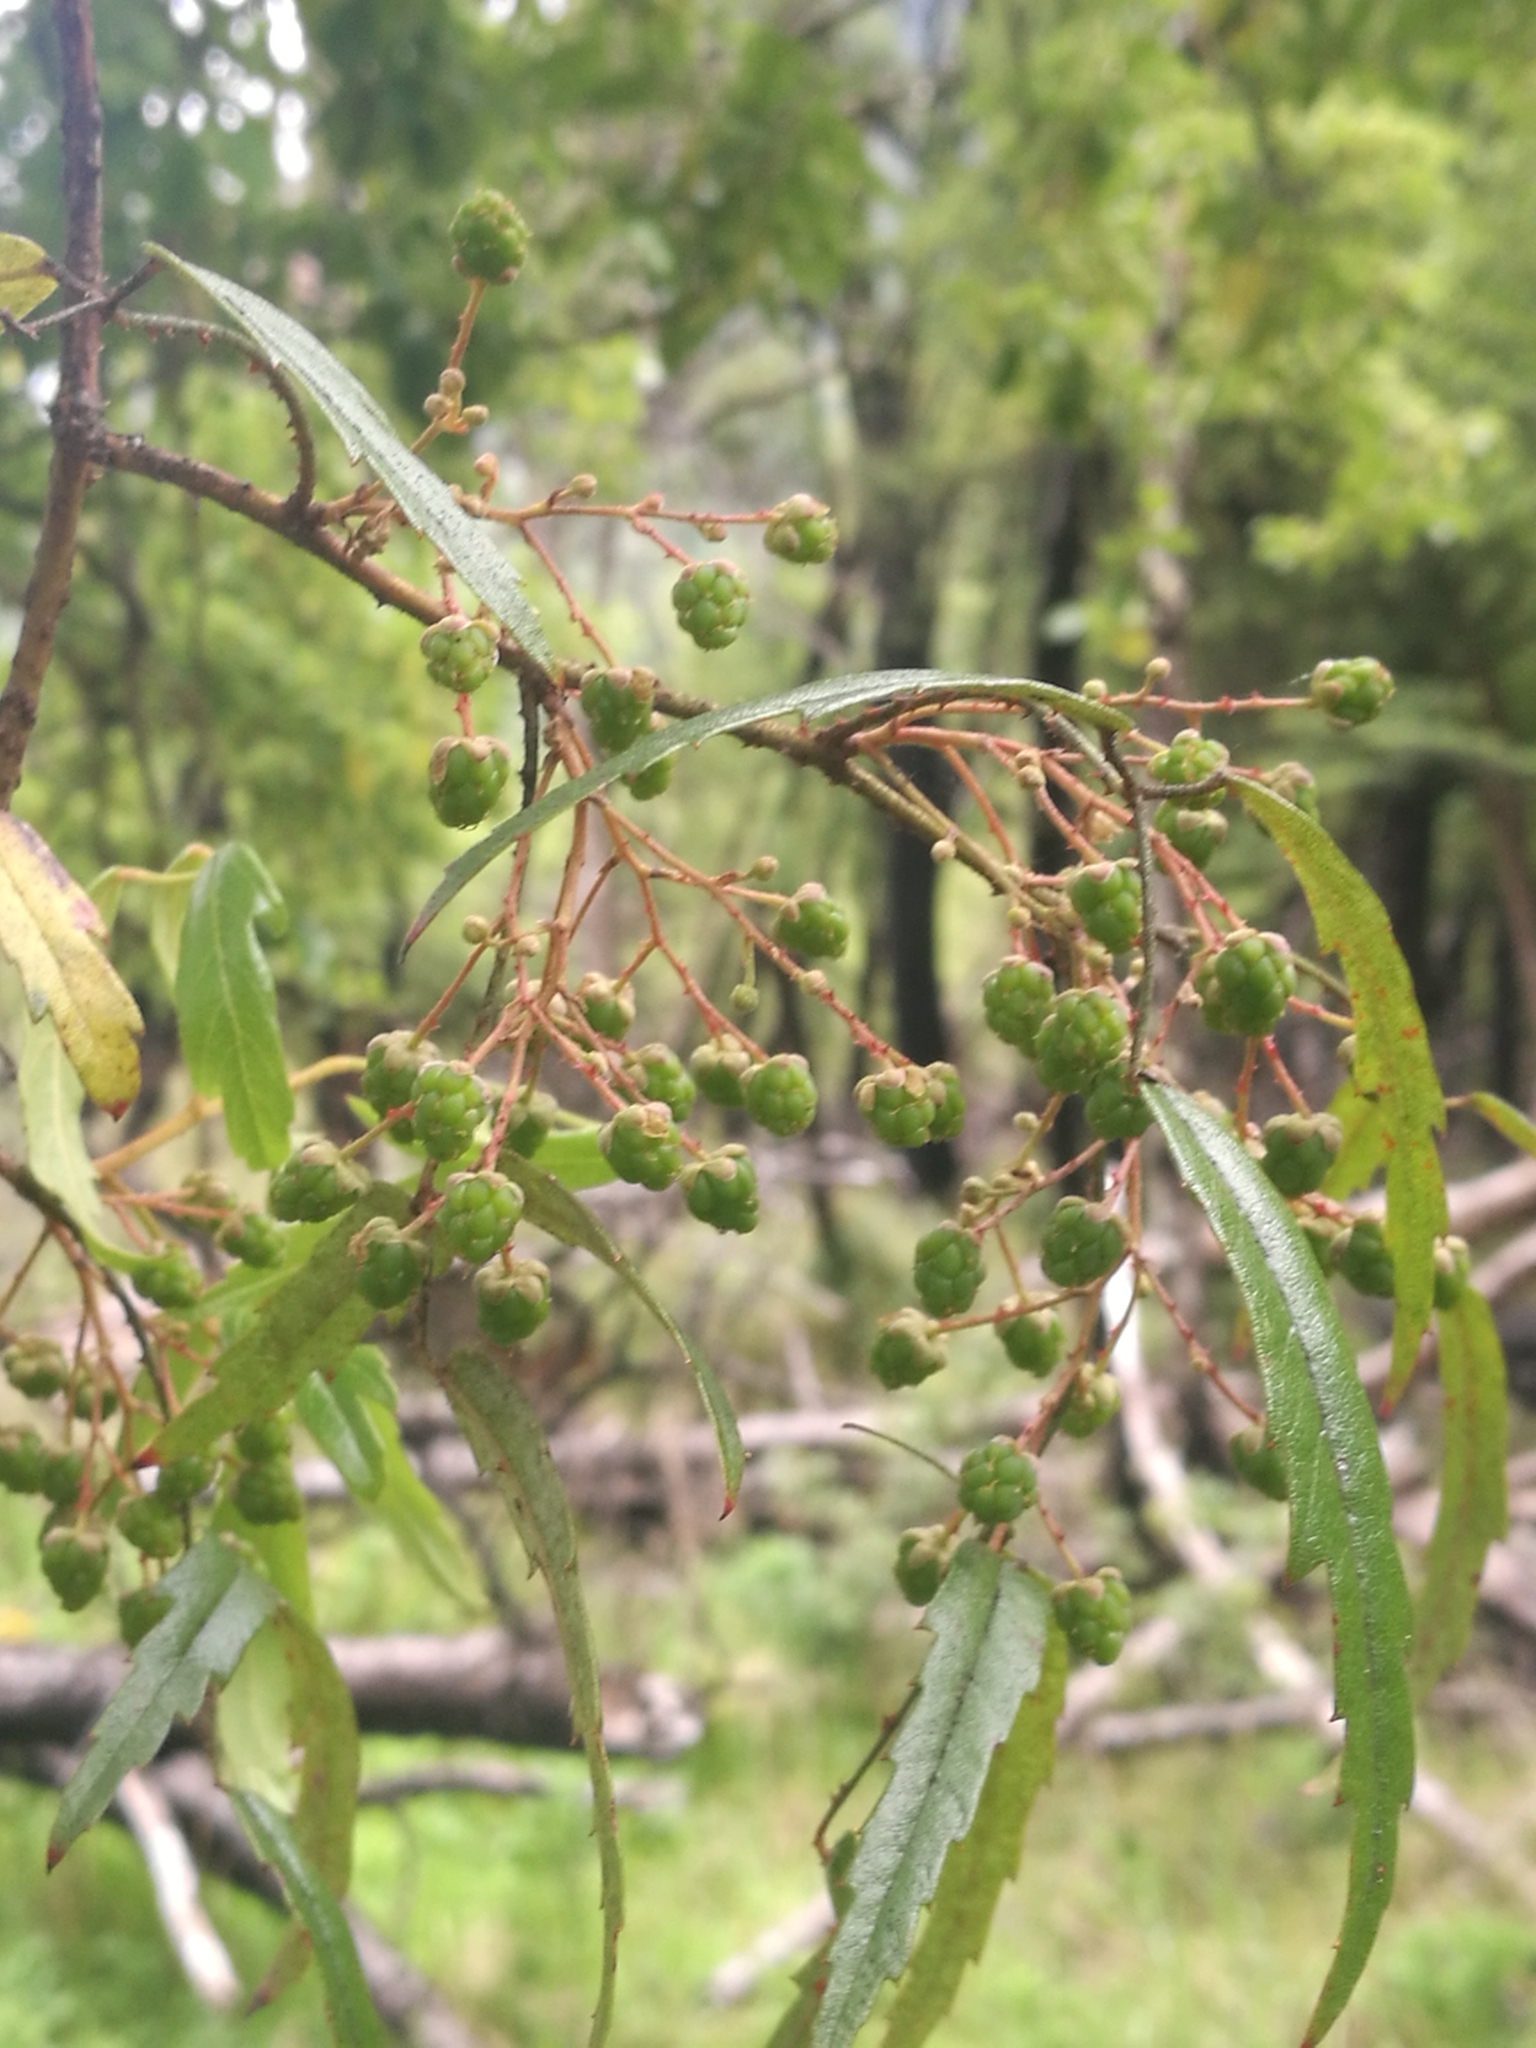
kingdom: Plantae
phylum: Tracheophyta
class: Magnoliopsida
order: Rosales
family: Rosaceae
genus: Rubus
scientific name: Rubus schmidelioides
